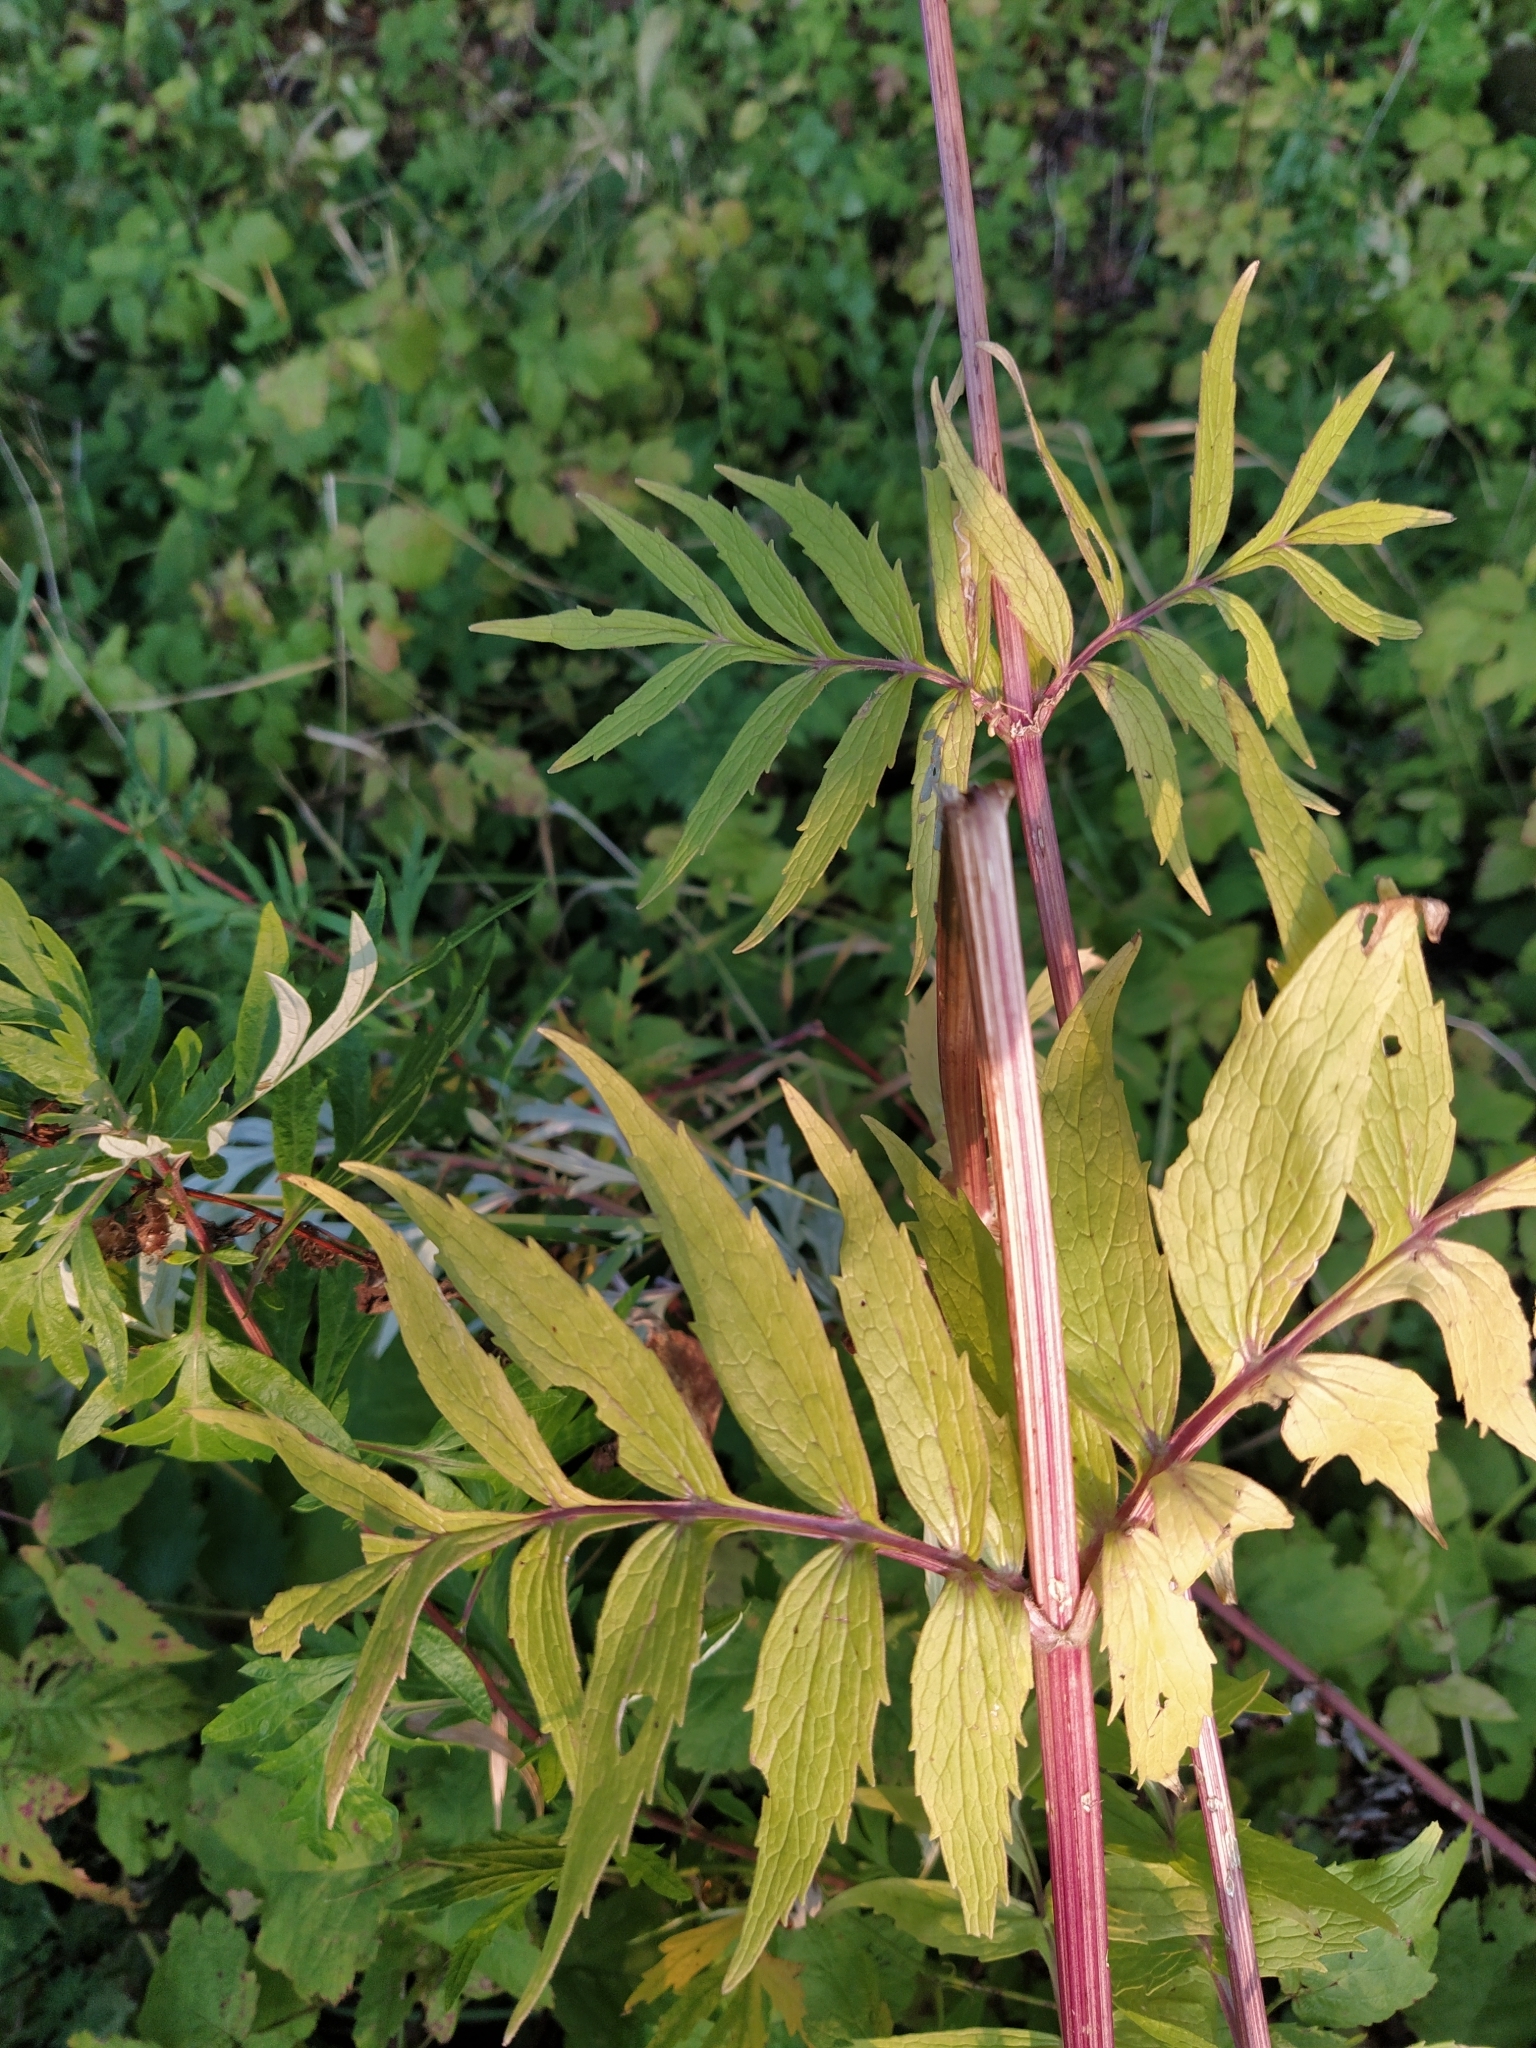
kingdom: Plantae
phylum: Tracheophyta
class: Magnoliopsida
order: Dipsacales
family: Caprifoliaceae
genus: Valeriana
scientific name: Valeriana officinalis
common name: Common valerian
